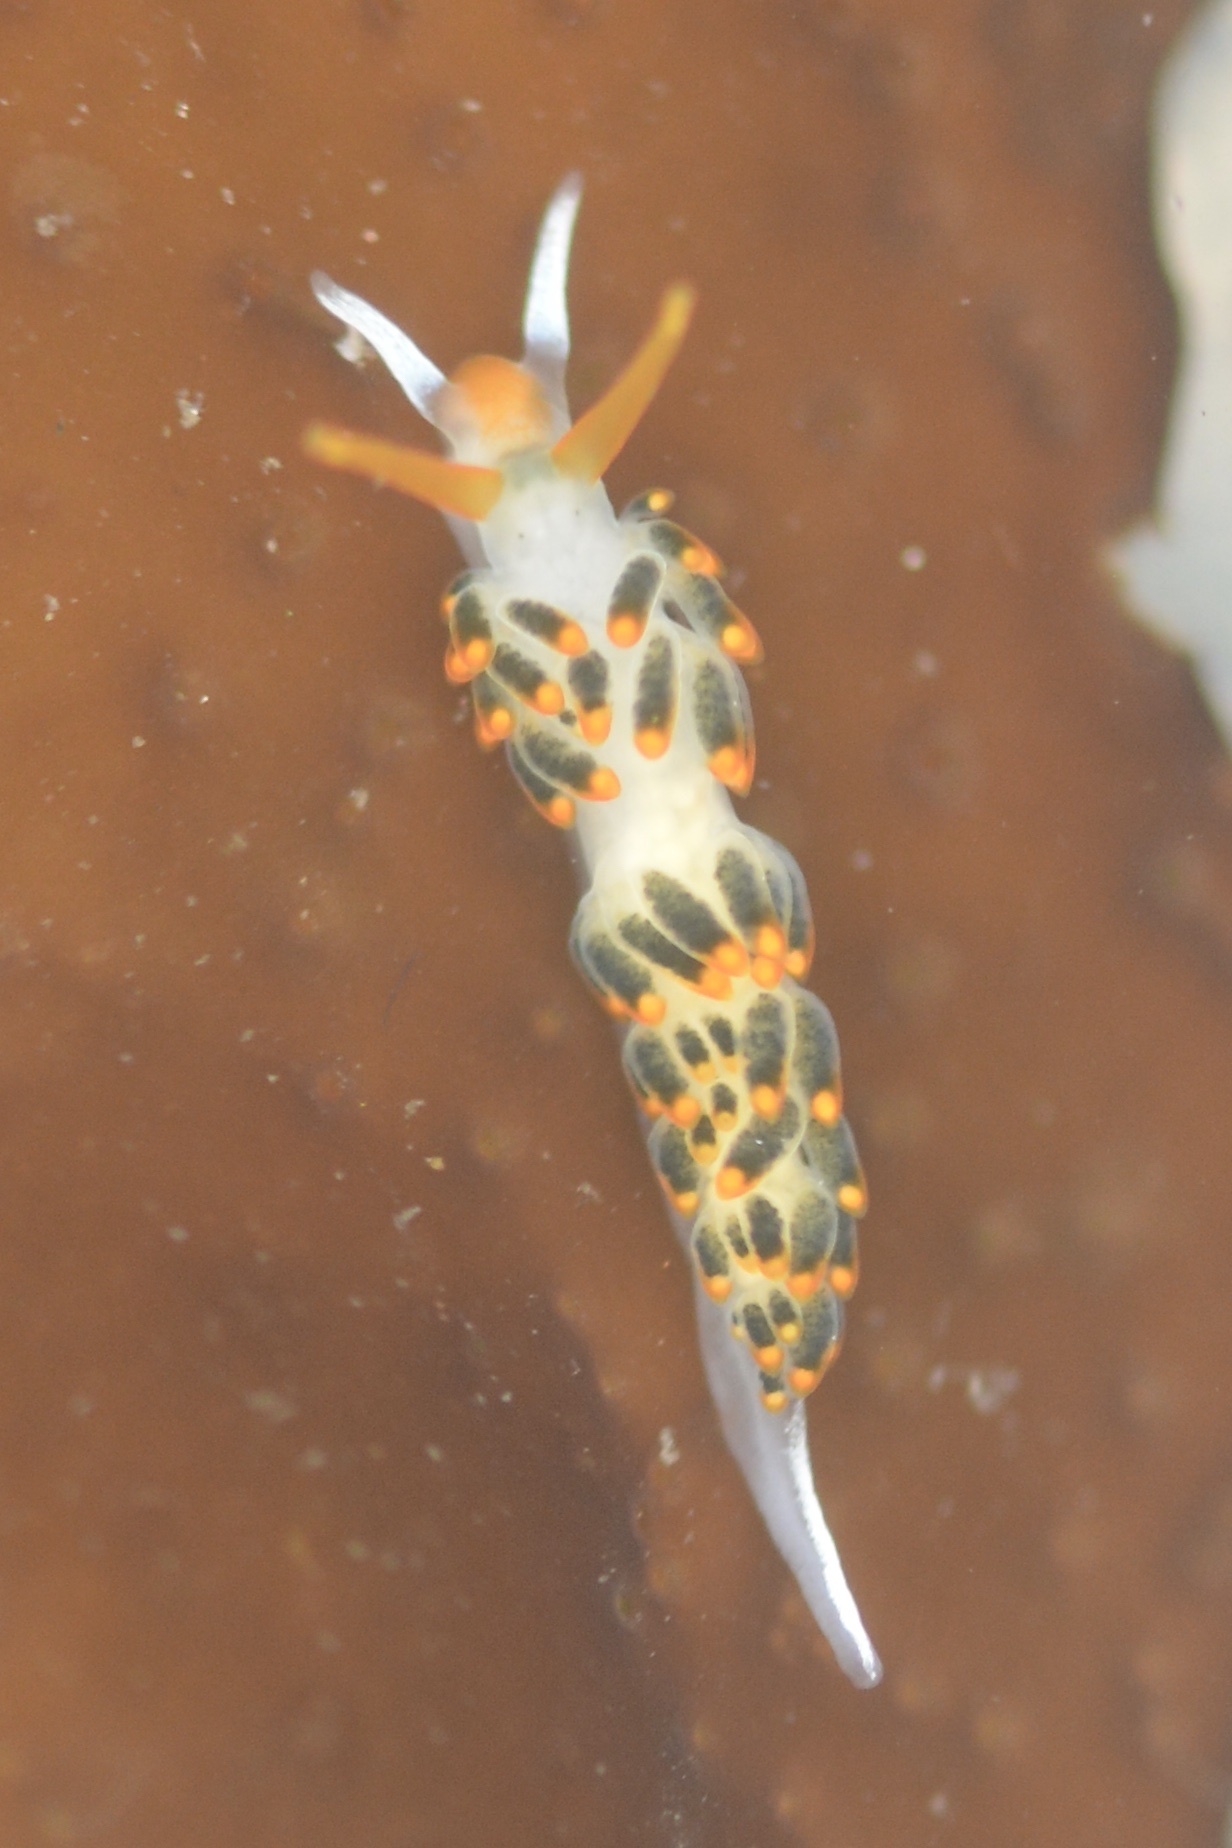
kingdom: Animalia
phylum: Mollusca
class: Gastropoda
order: Nudibranchia
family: Trinchesiidae
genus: Diaphoreolis
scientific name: Diaphoreolis lagunae
